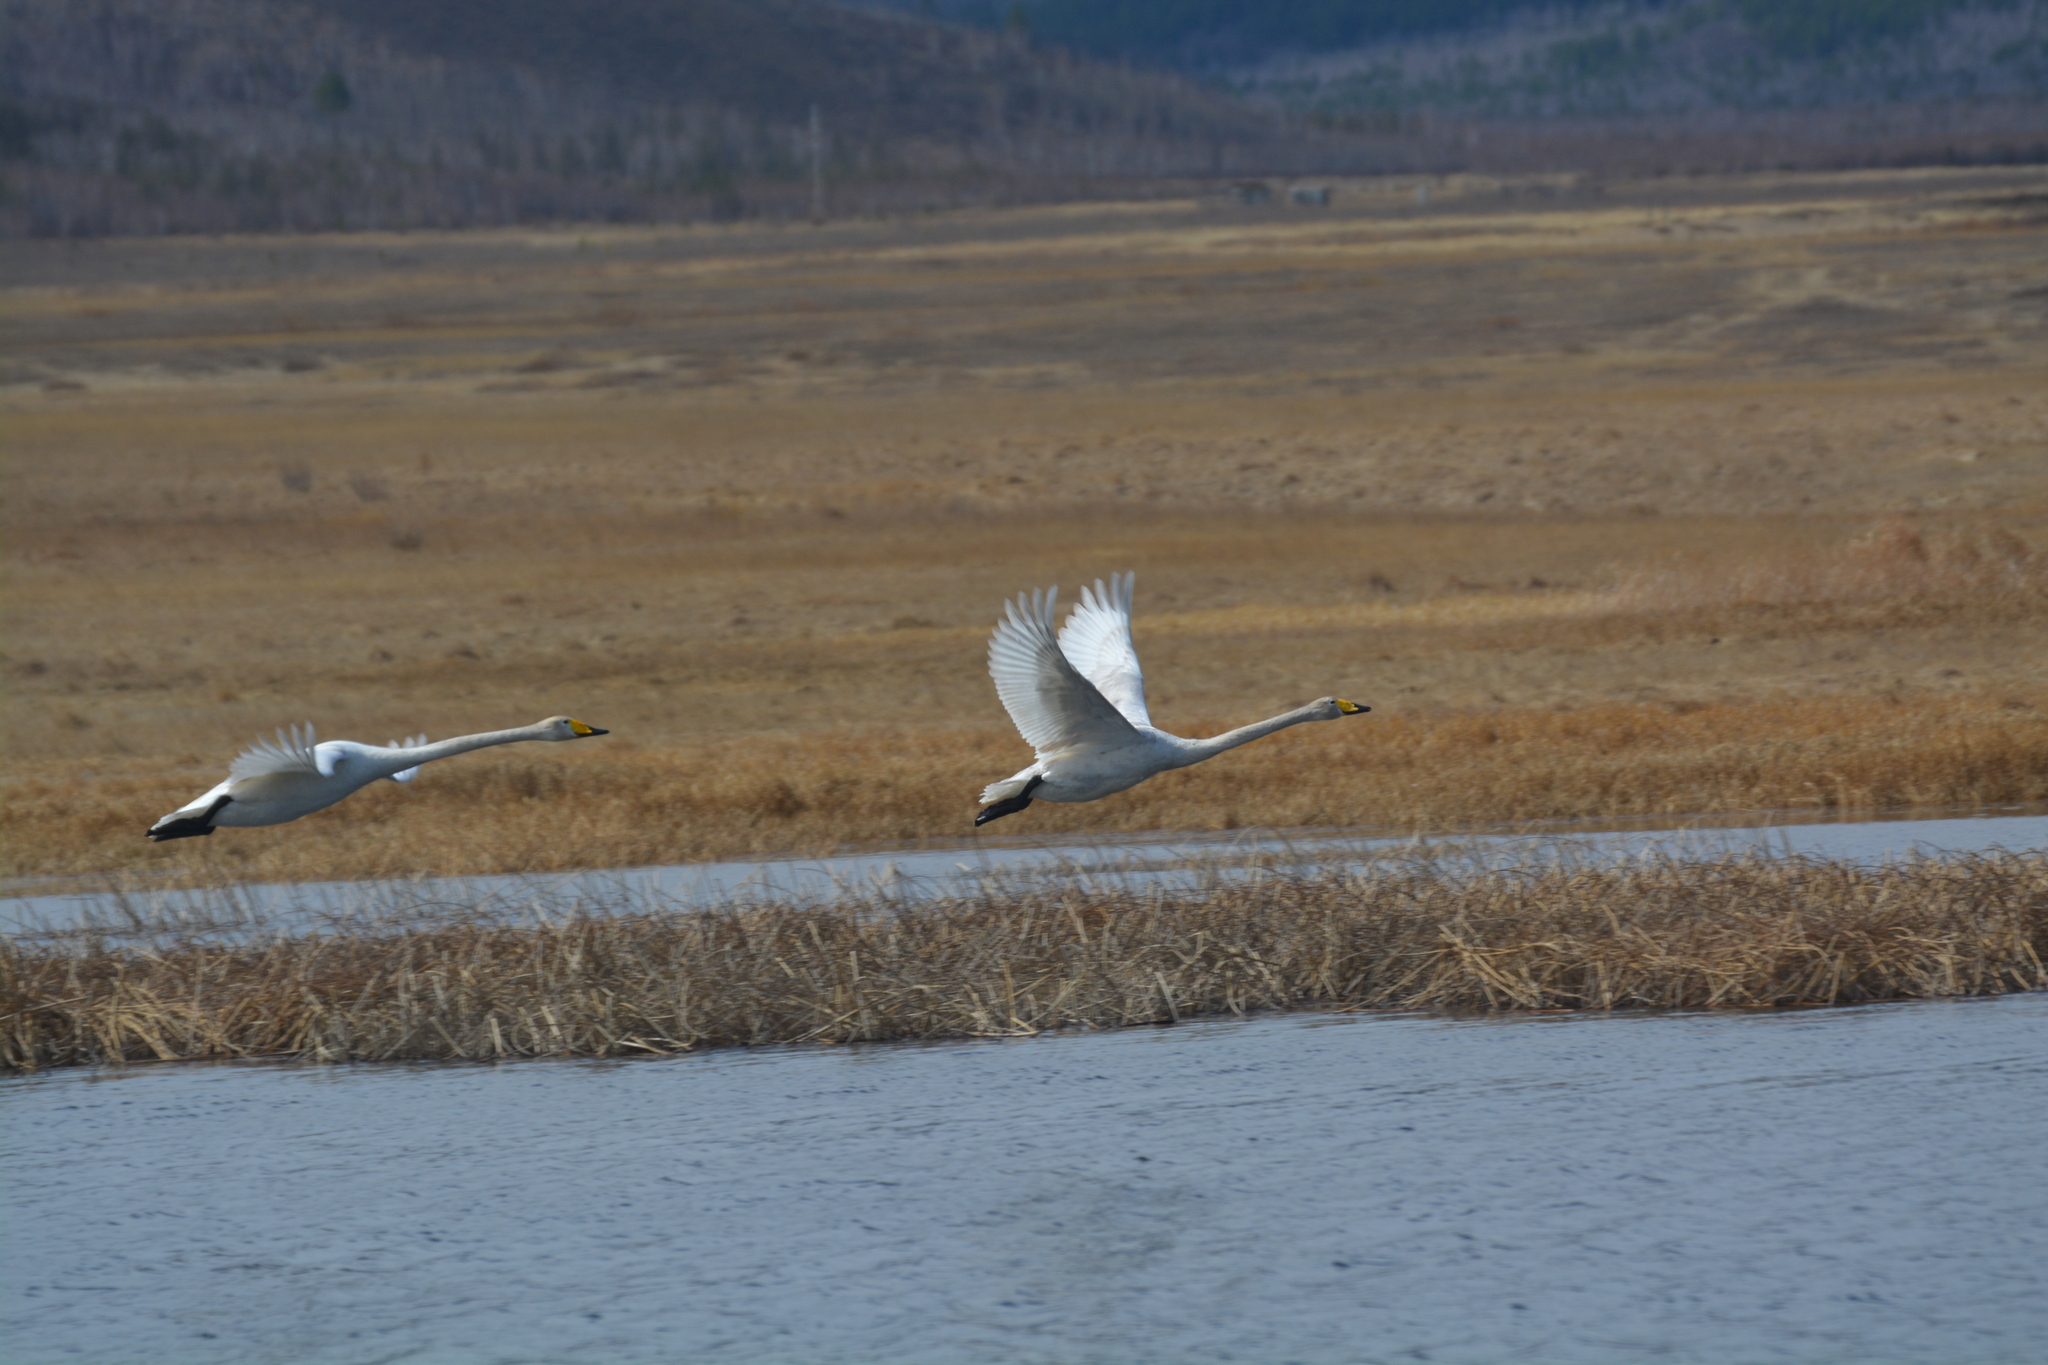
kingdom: Animalia
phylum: Chordata
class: Aves
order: Anseriformes
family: Anatidae
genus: Cygnus
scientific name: Cygnus cygnus
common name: Whooper swan
